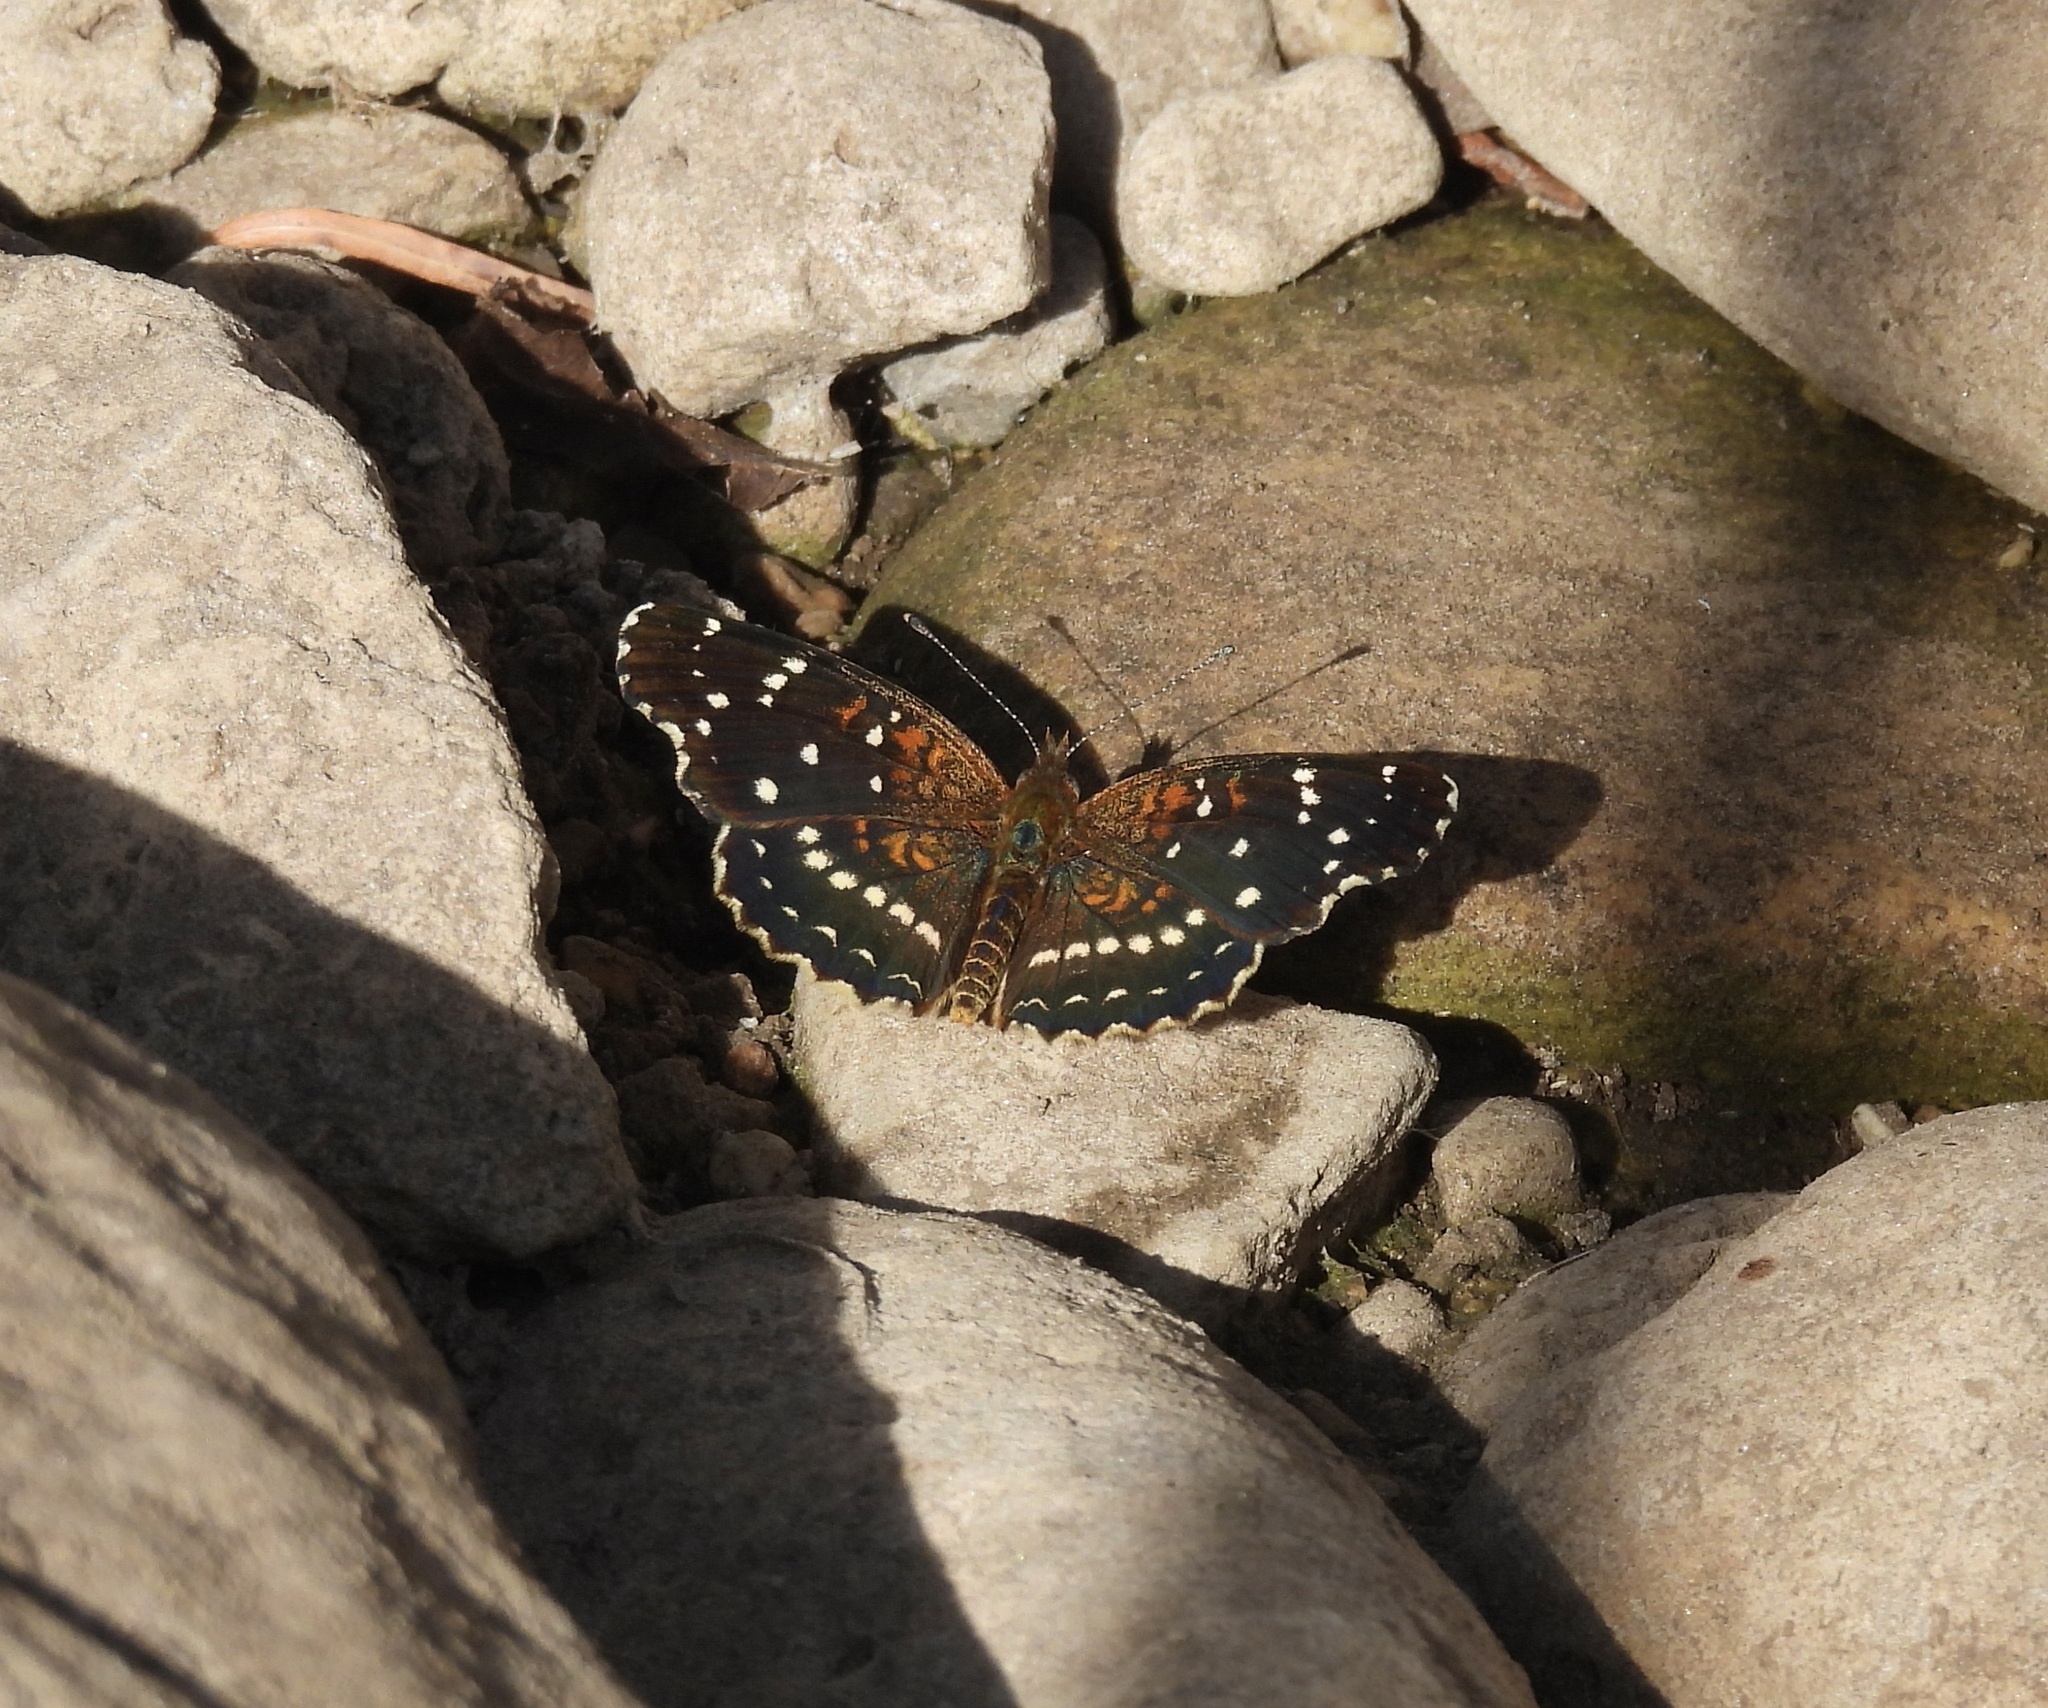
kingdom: Animalia
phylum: Arthropoda
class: Insecta
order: Lepidoptera
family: Nymphalidae
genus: Anthanassa
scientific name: Anthanassa texana
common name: Texan crescent
